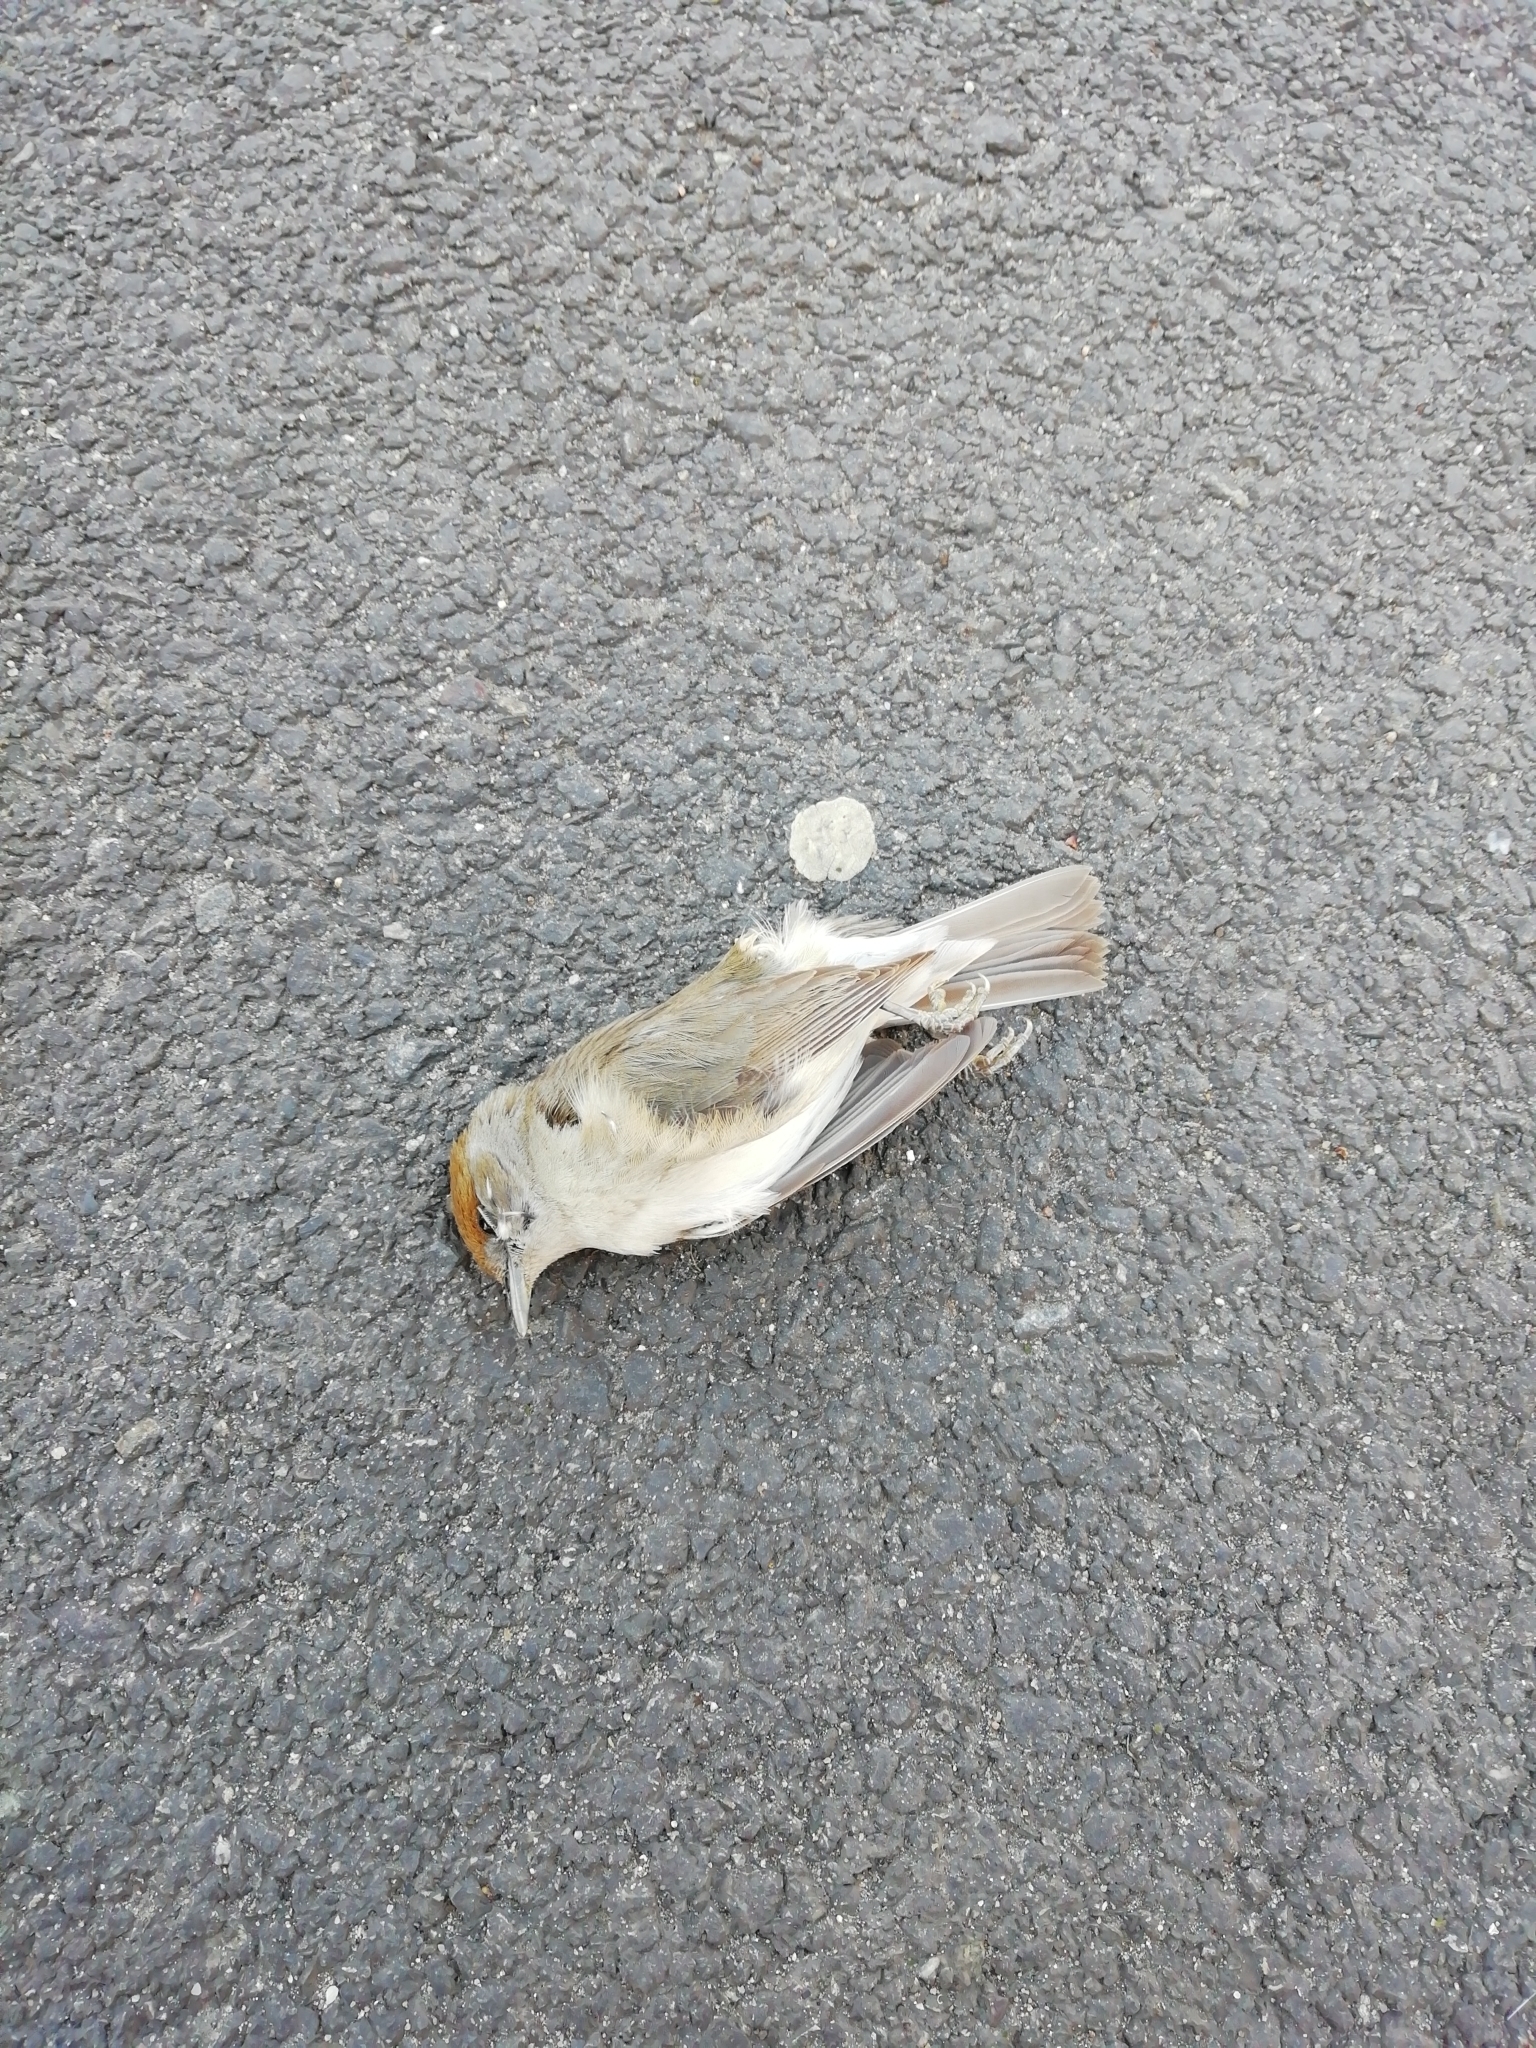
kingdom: Animalia
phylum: Chordata
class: Aves
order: Passeriformes
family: Sylviidae
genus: Sylvia
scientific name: Sylvia atricapilla
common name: Eurasian blackcap
